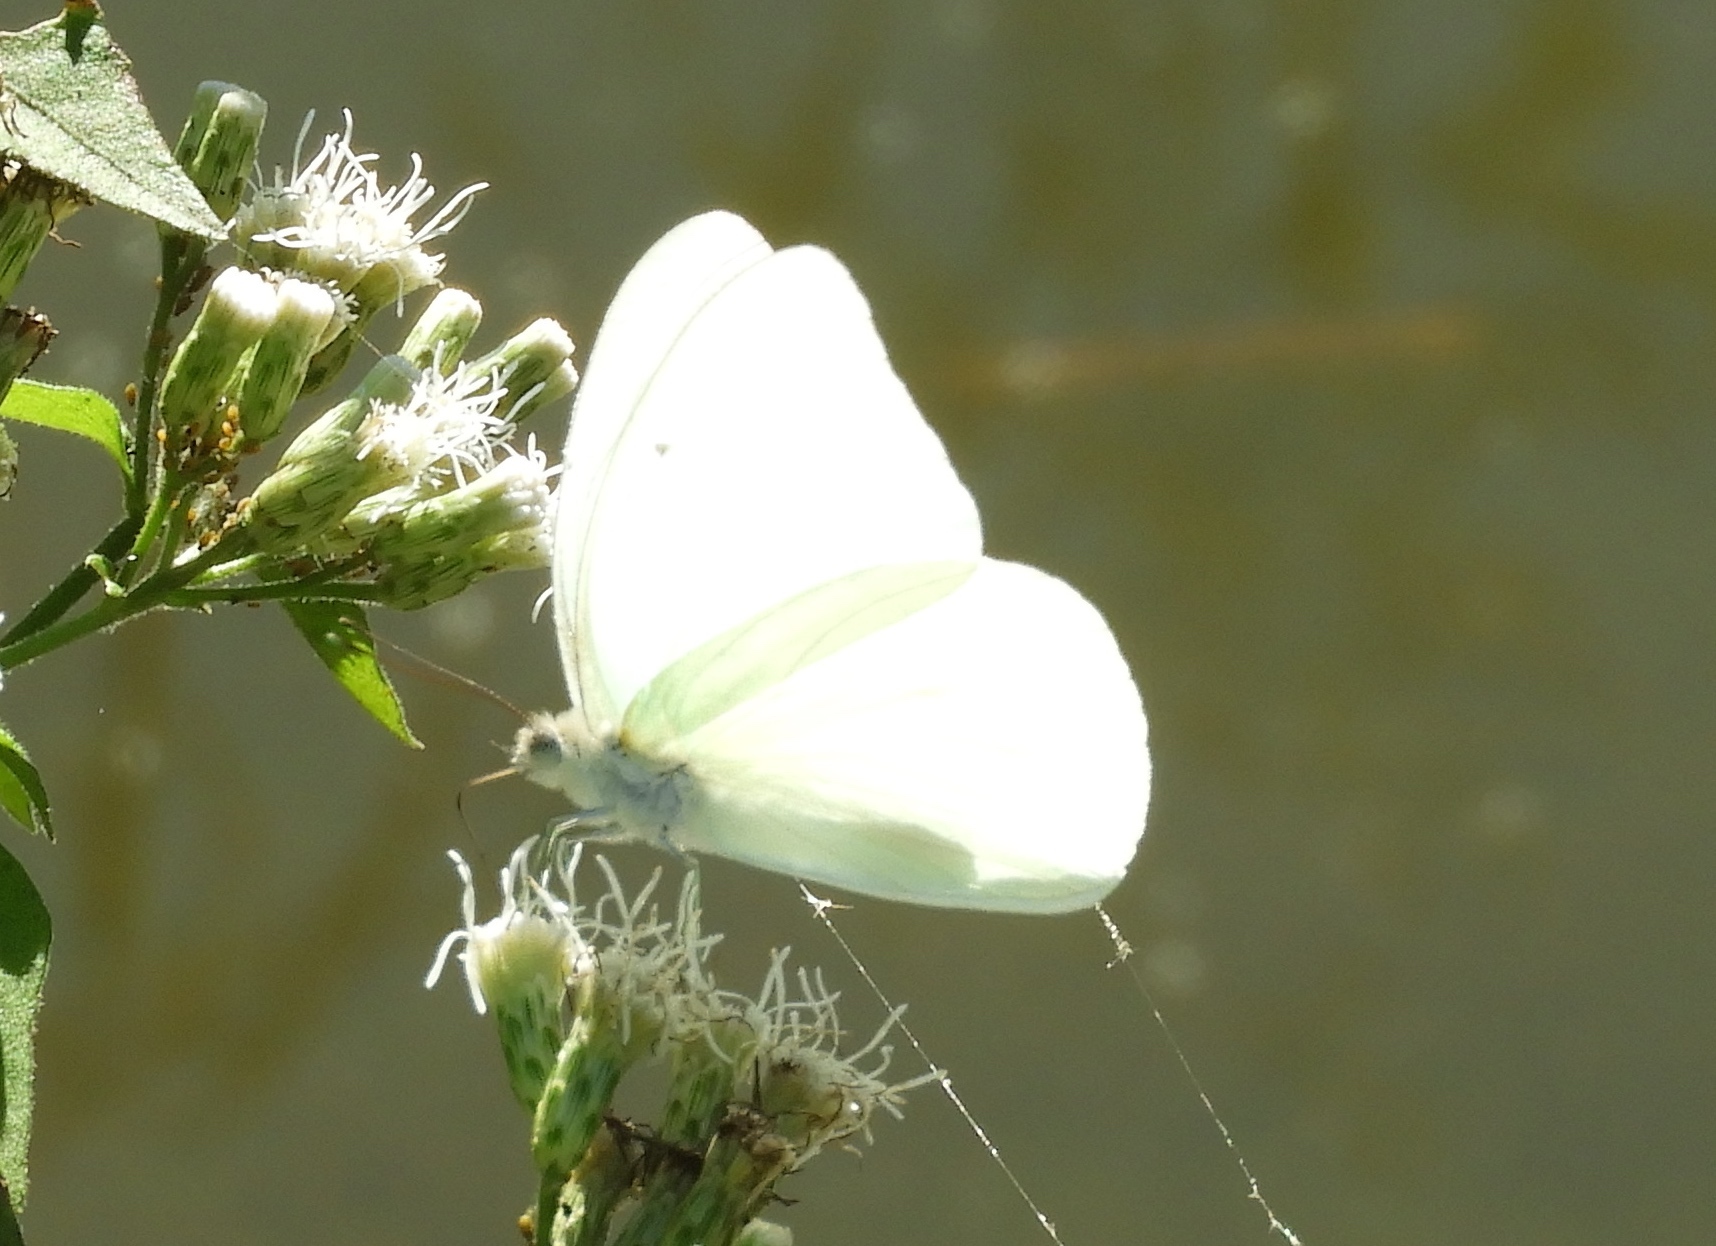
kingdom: Animalia
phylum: Arthropoda
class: Insecta
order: Lepidoptera
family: Pieridae
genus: Glutophrissa
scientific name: Glutophrissa drusilla
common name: Florida white
